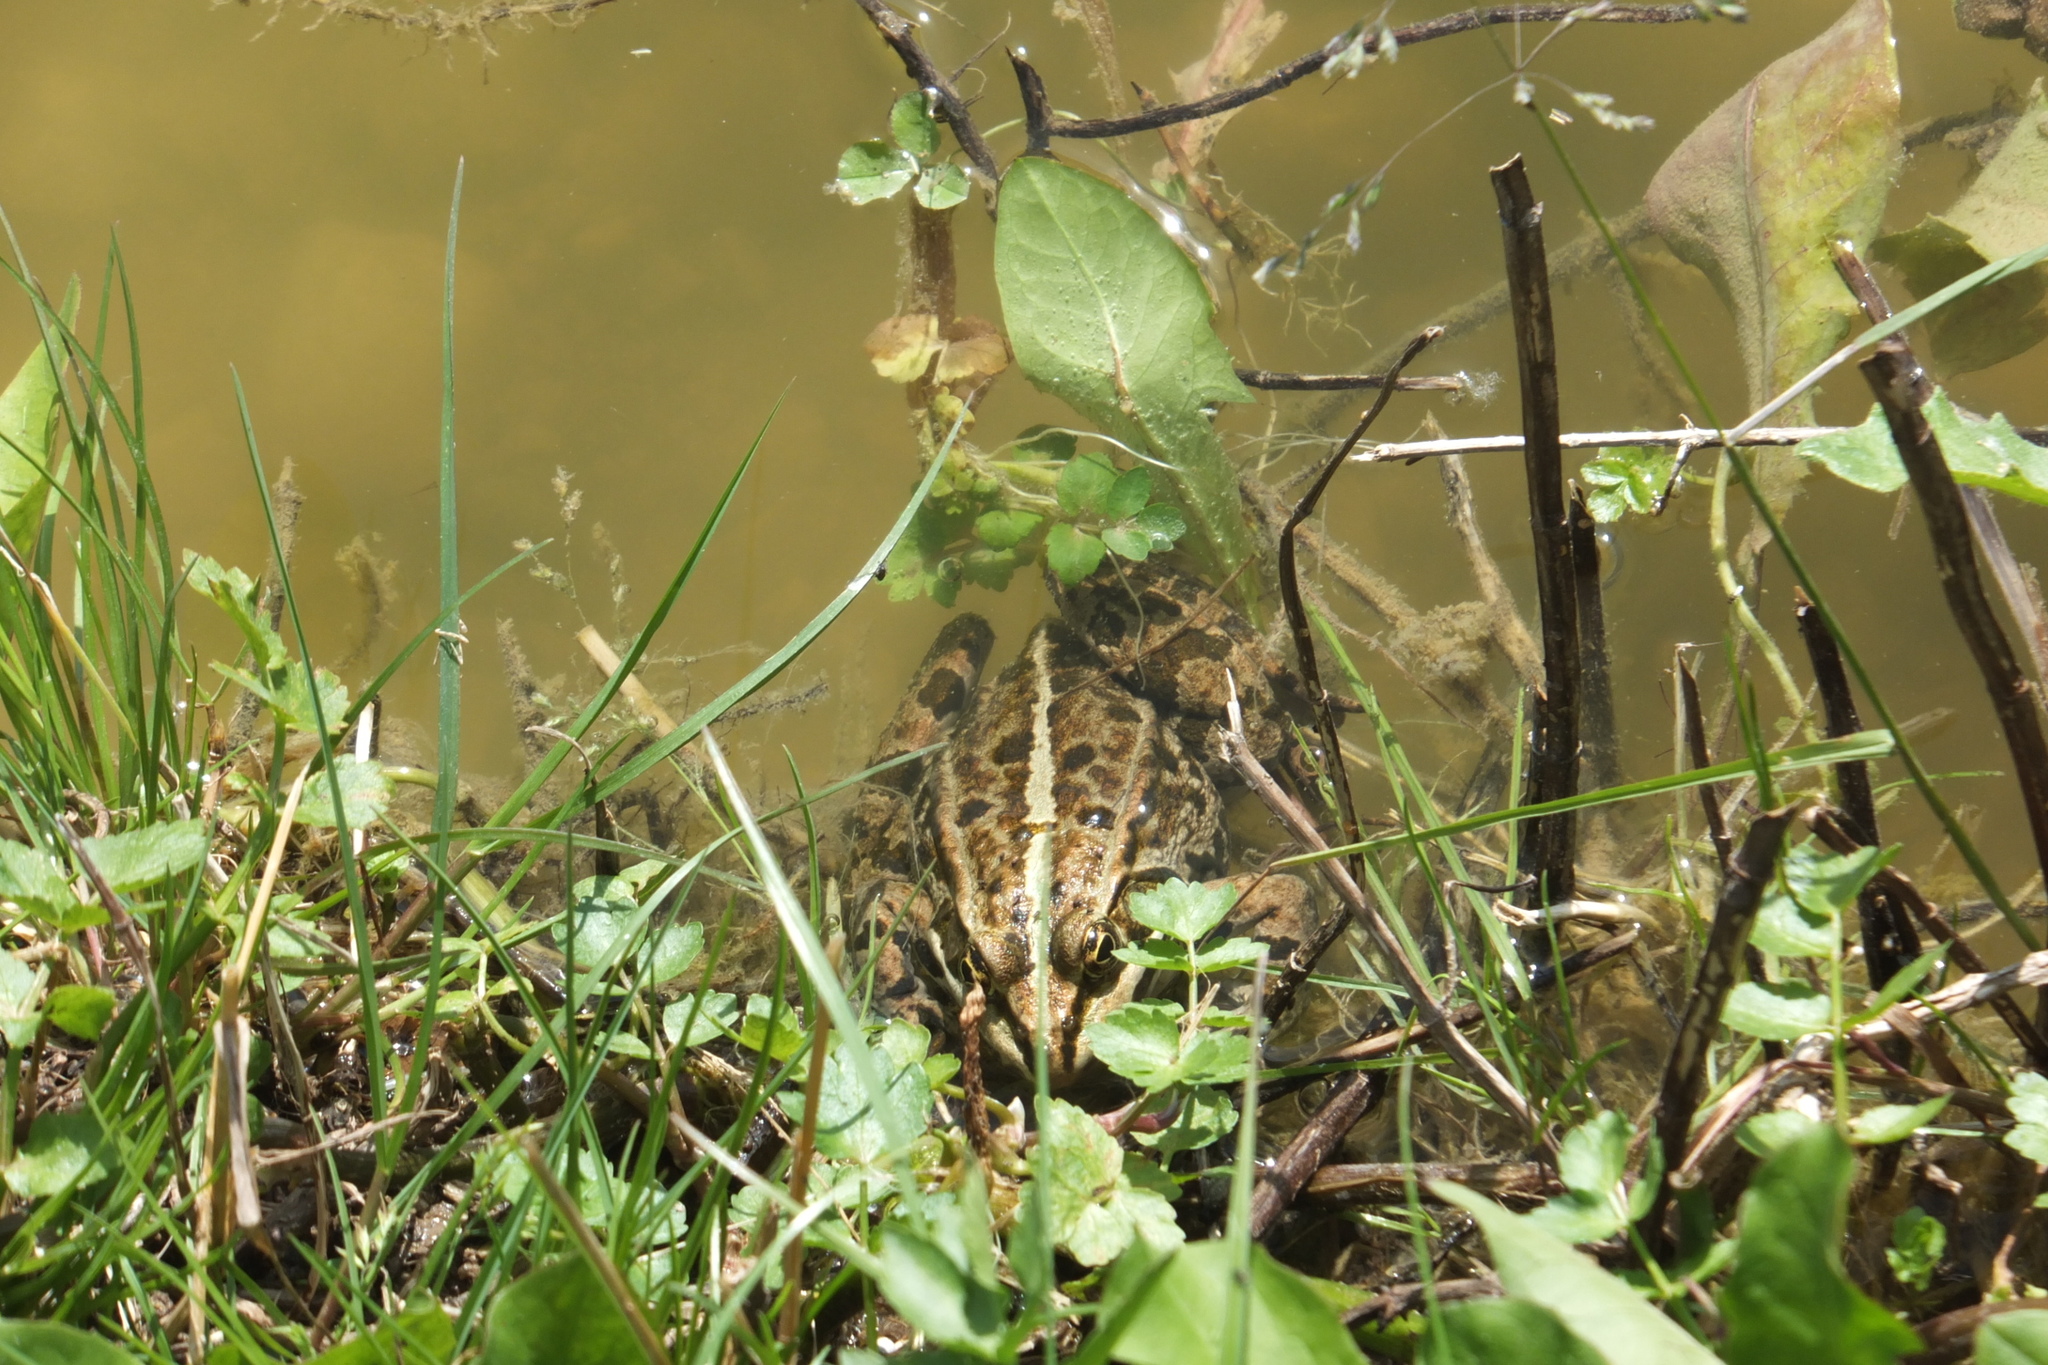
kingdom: Animalia
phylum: Chordata
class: Amphibia
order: Anura
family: Ranidae
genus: Pelophylax
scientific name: Pelophylax
